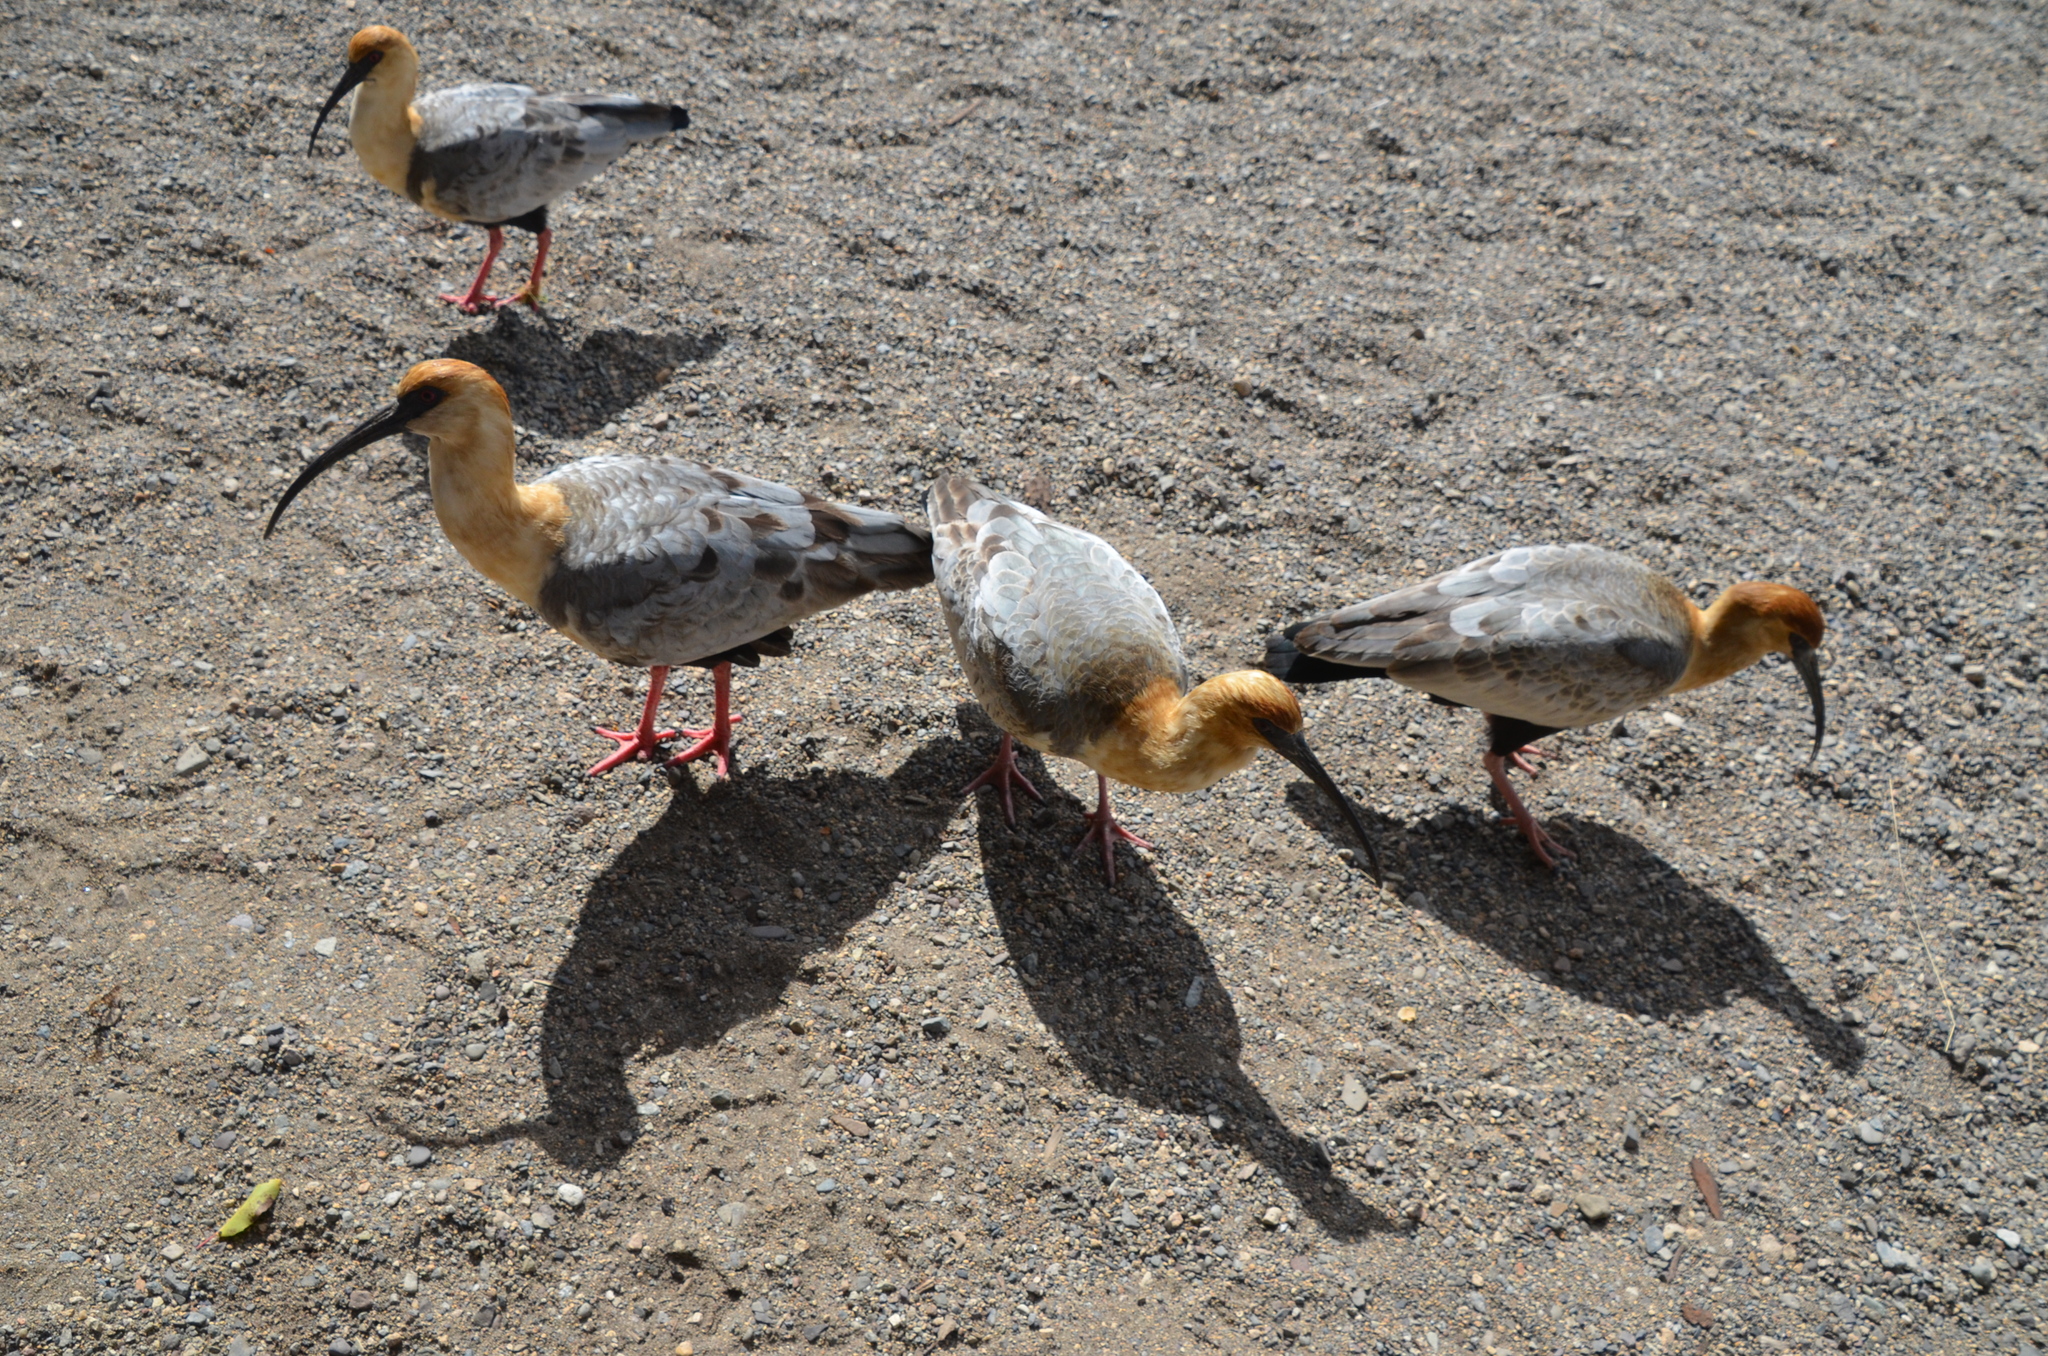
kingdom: Animalia
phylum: Chordata
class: Aves
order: Pelecaniformes
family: Threskiornithidae
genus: Theristicus
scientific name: Theristicus melanopis
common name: Black-faced ibis
